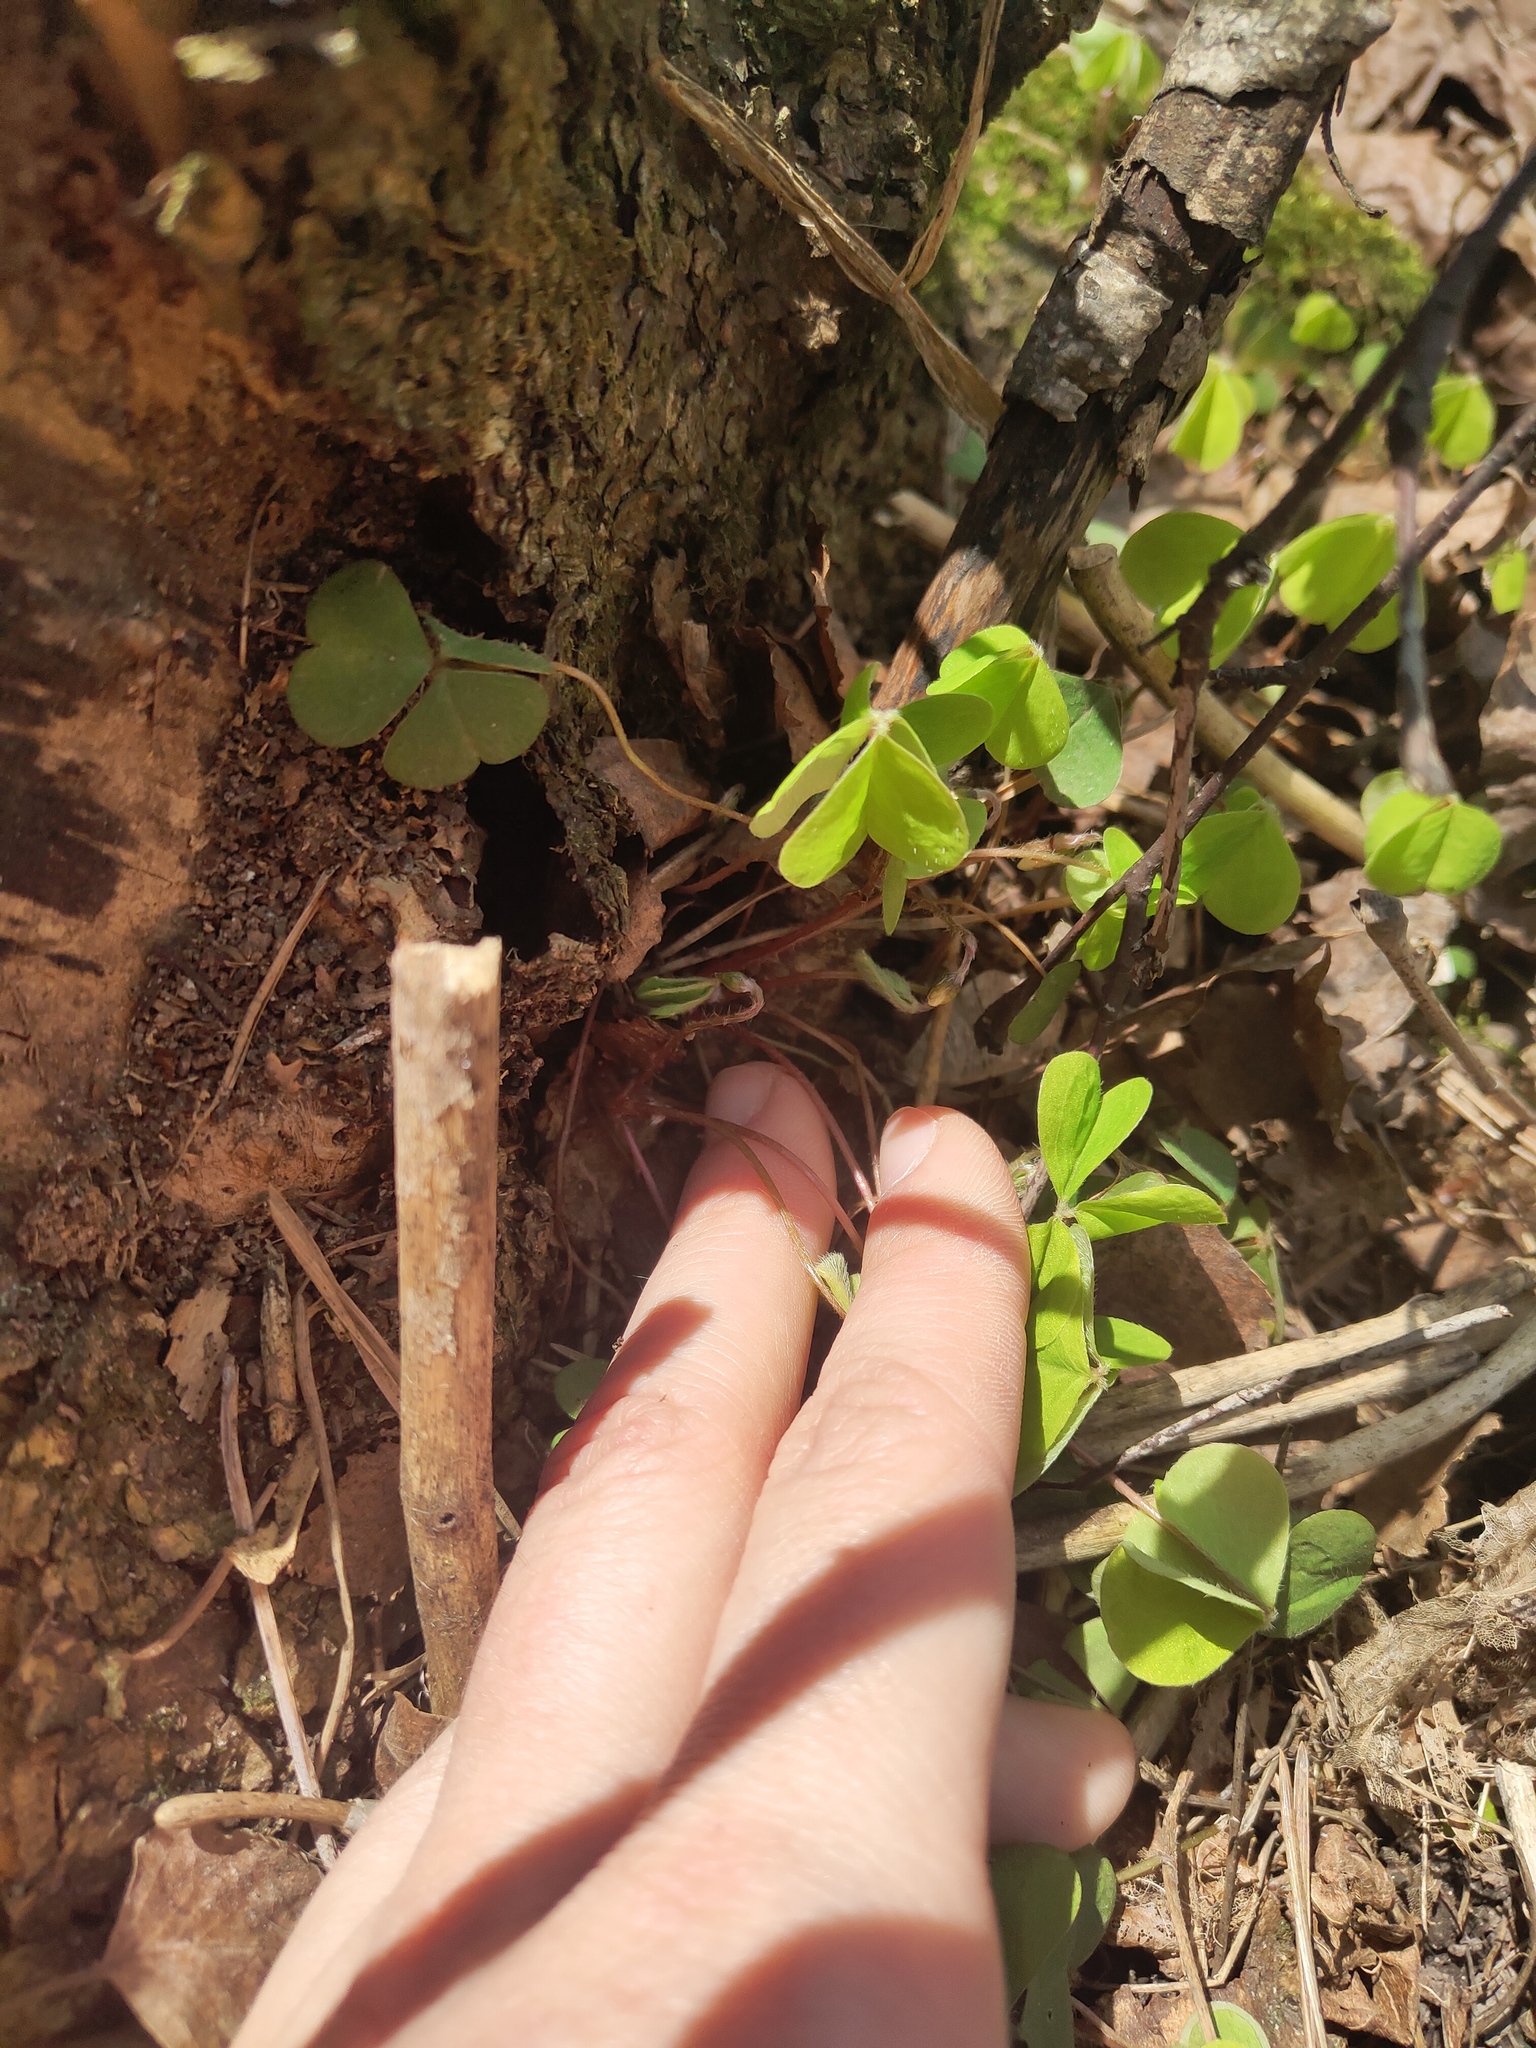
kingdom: Plantae
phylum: Tracheophyta
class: Magnoliopsida
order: Oxalidales
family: Oxalidaceae
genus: Oxalis
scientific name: Oxalis acetosella
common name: Wood-sorrel
